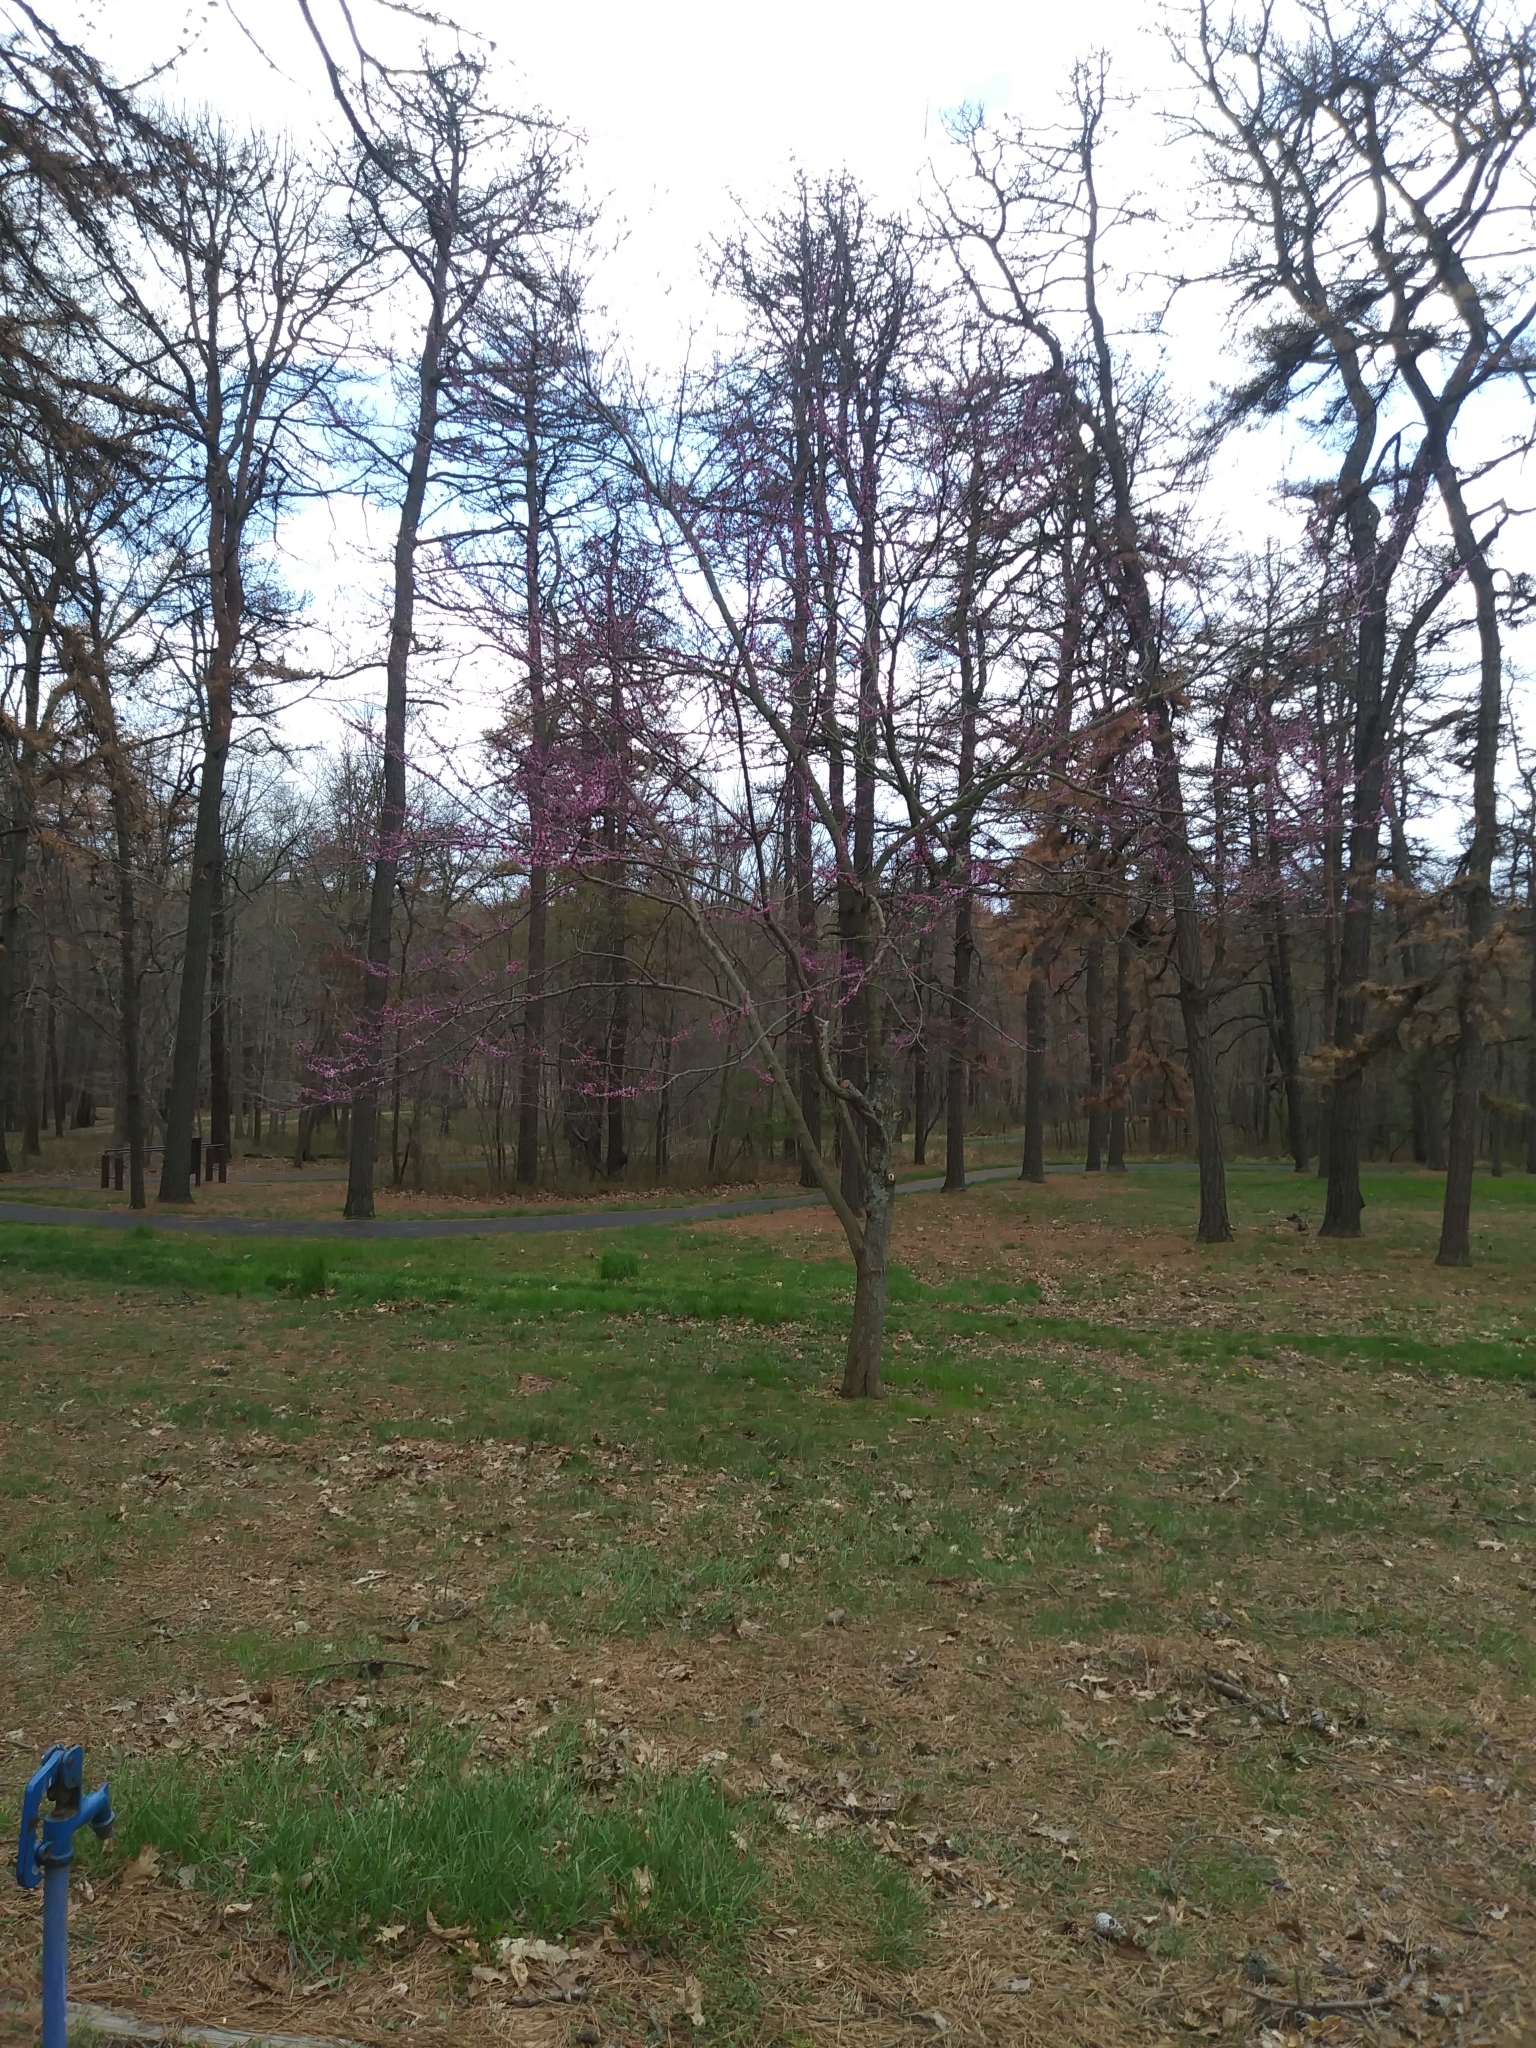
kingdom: Plantae
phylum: Tracheophyta
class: Magnoliopsida
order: Fabales
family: Fabaceae
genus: Cercis
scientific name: Cercis canadensis
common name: Eastern redbud
